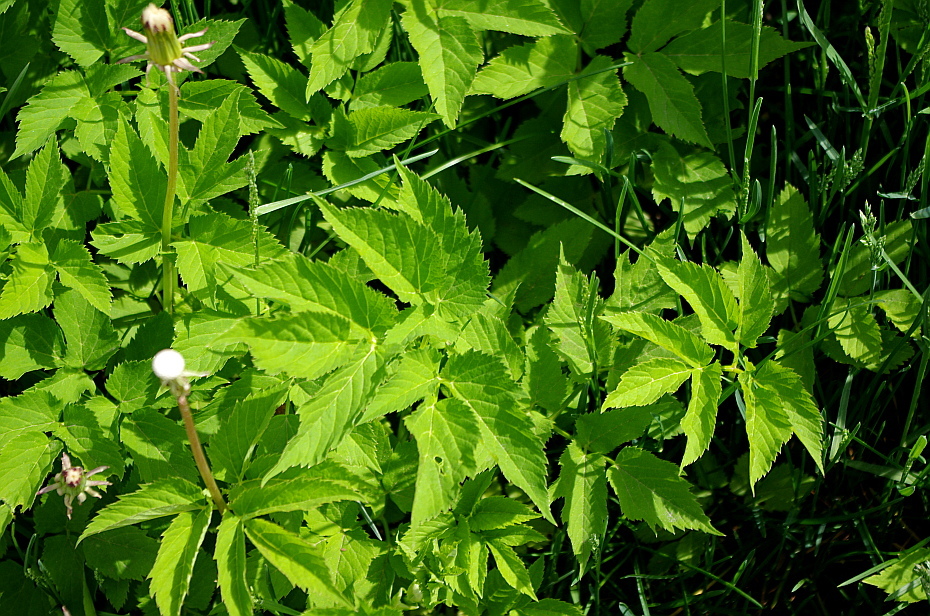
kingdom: Plantae
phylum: Tracheophyta
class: Magnoliopsida
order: Apiales
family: Apiaceae
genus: Aegopodium
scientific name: Aegopodium podagraria
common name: Ground-elder
